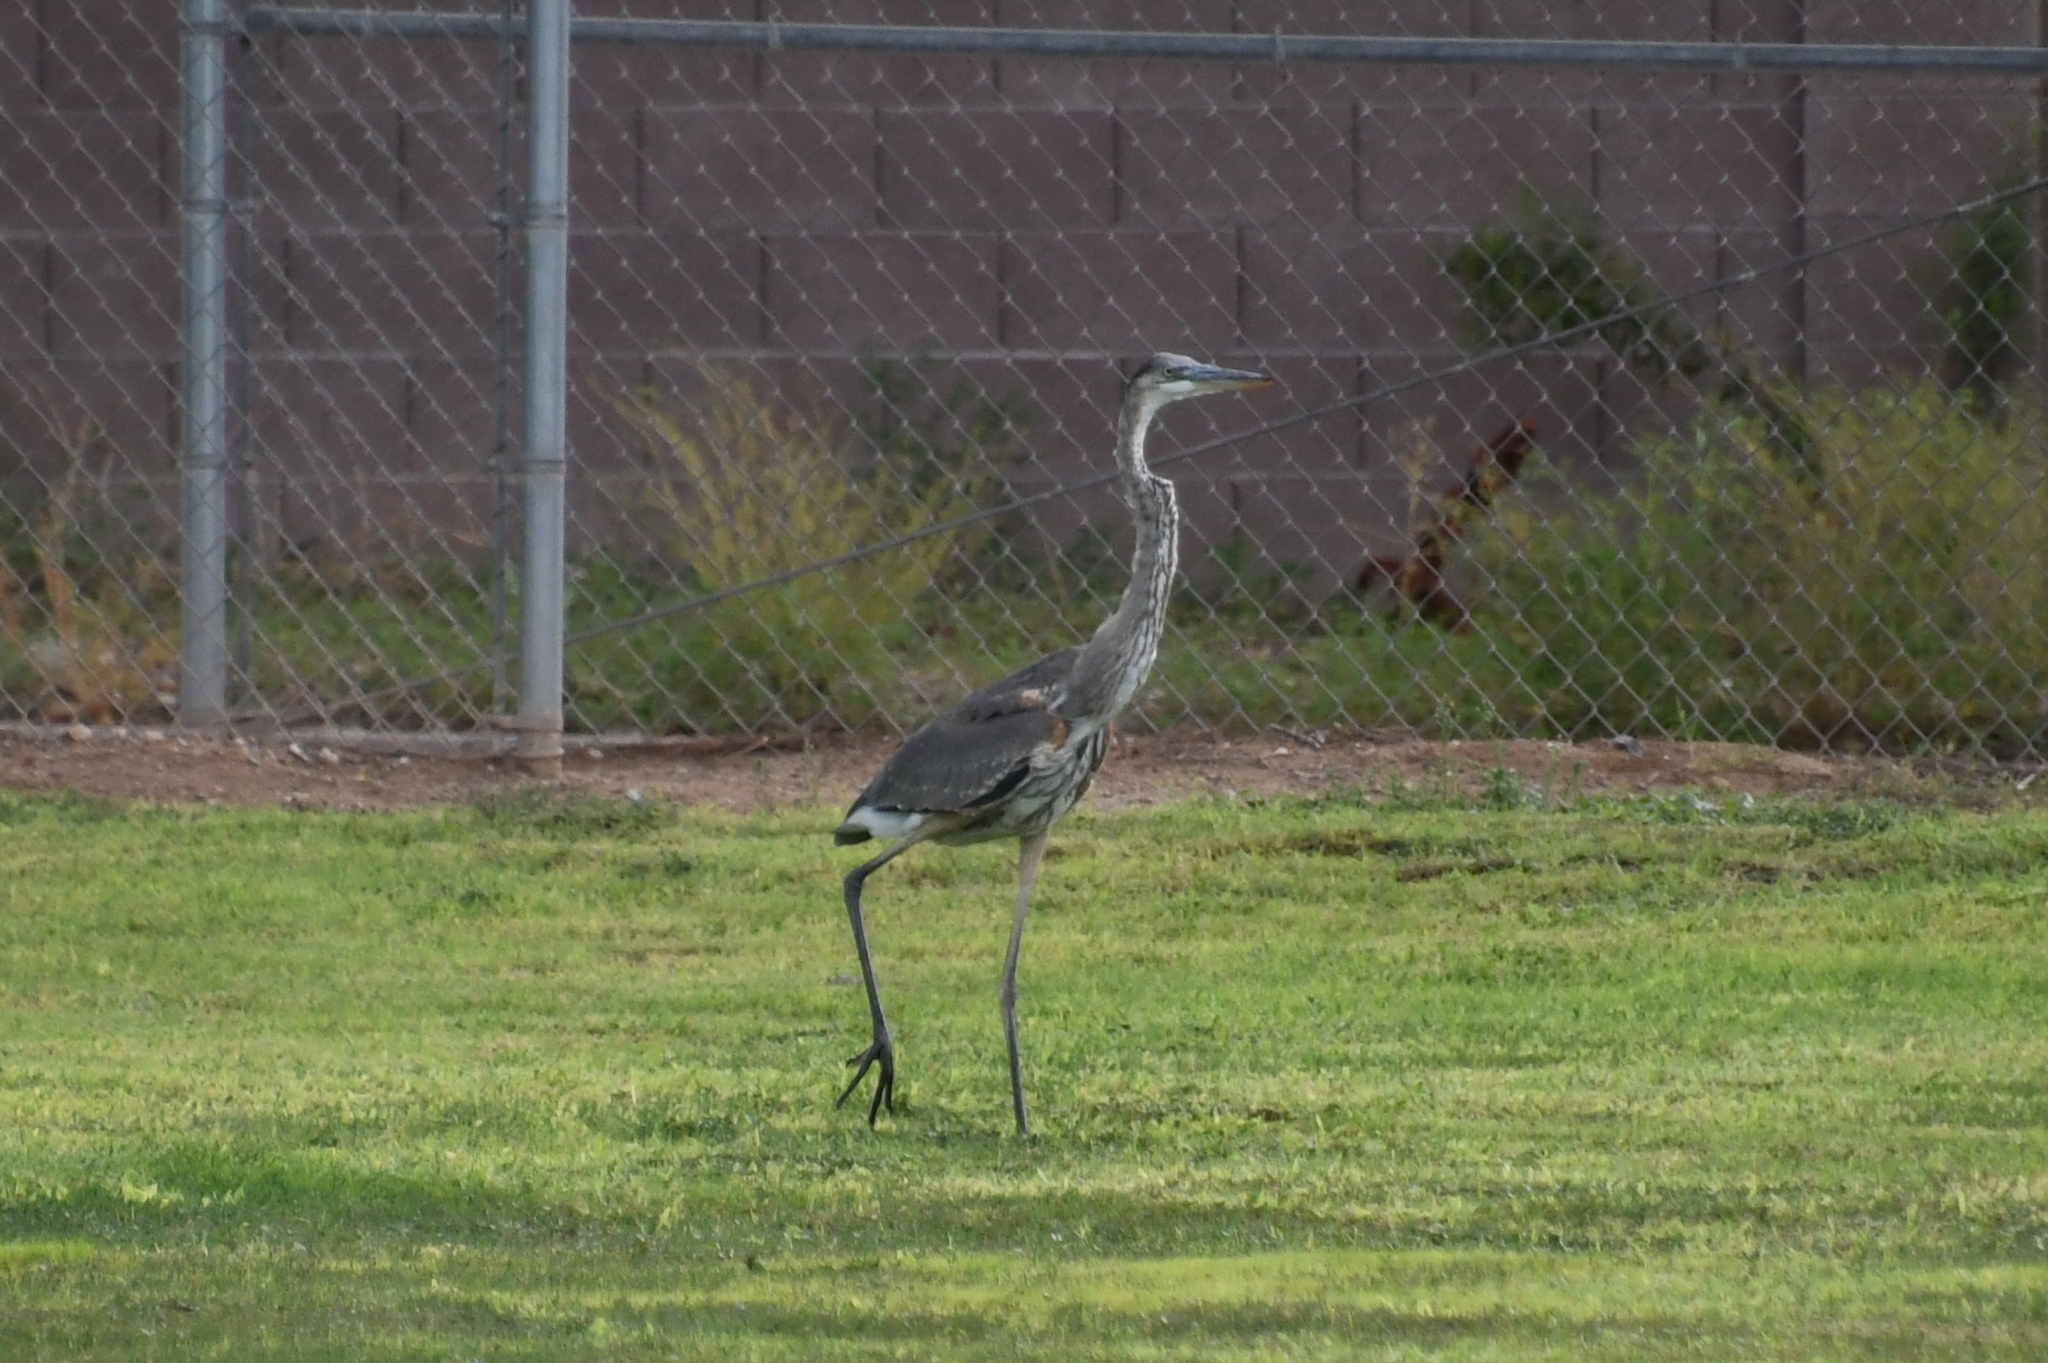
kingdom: Animalia
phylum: Chordata
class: Aves
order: Pelecaniformes
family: Ardeidae
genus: Ardea
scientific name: Ardea herodias
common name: Great blue heron
